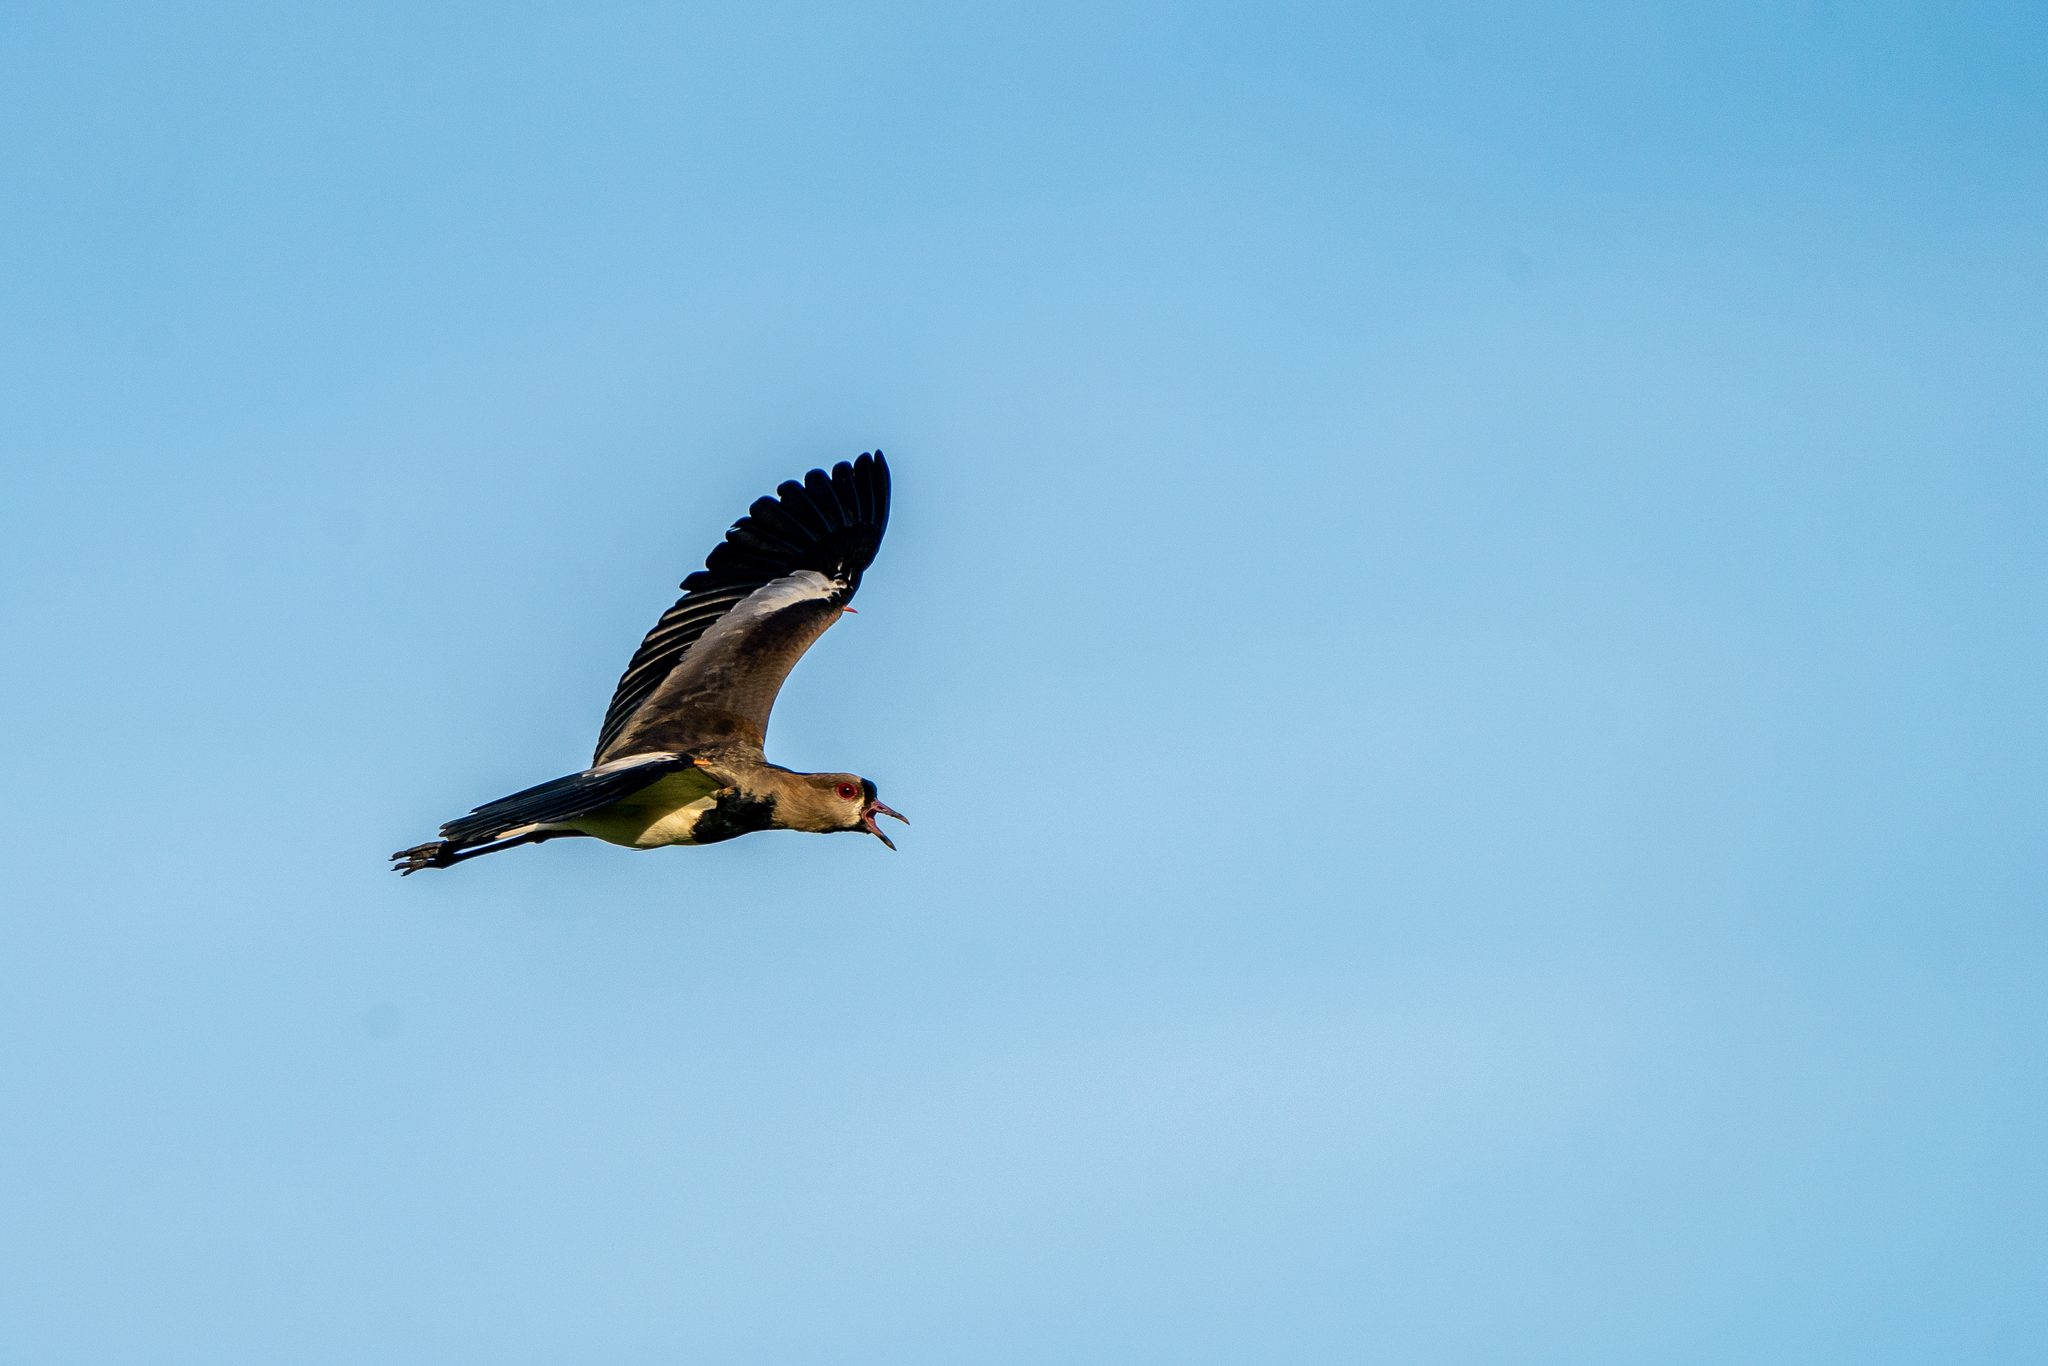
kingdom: Animalia
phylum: Chordata
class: Aves
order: Charadriiformes
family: Charadriidae
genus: Vanellus
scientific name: Vanellus chilensis
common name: Southern lapwing
